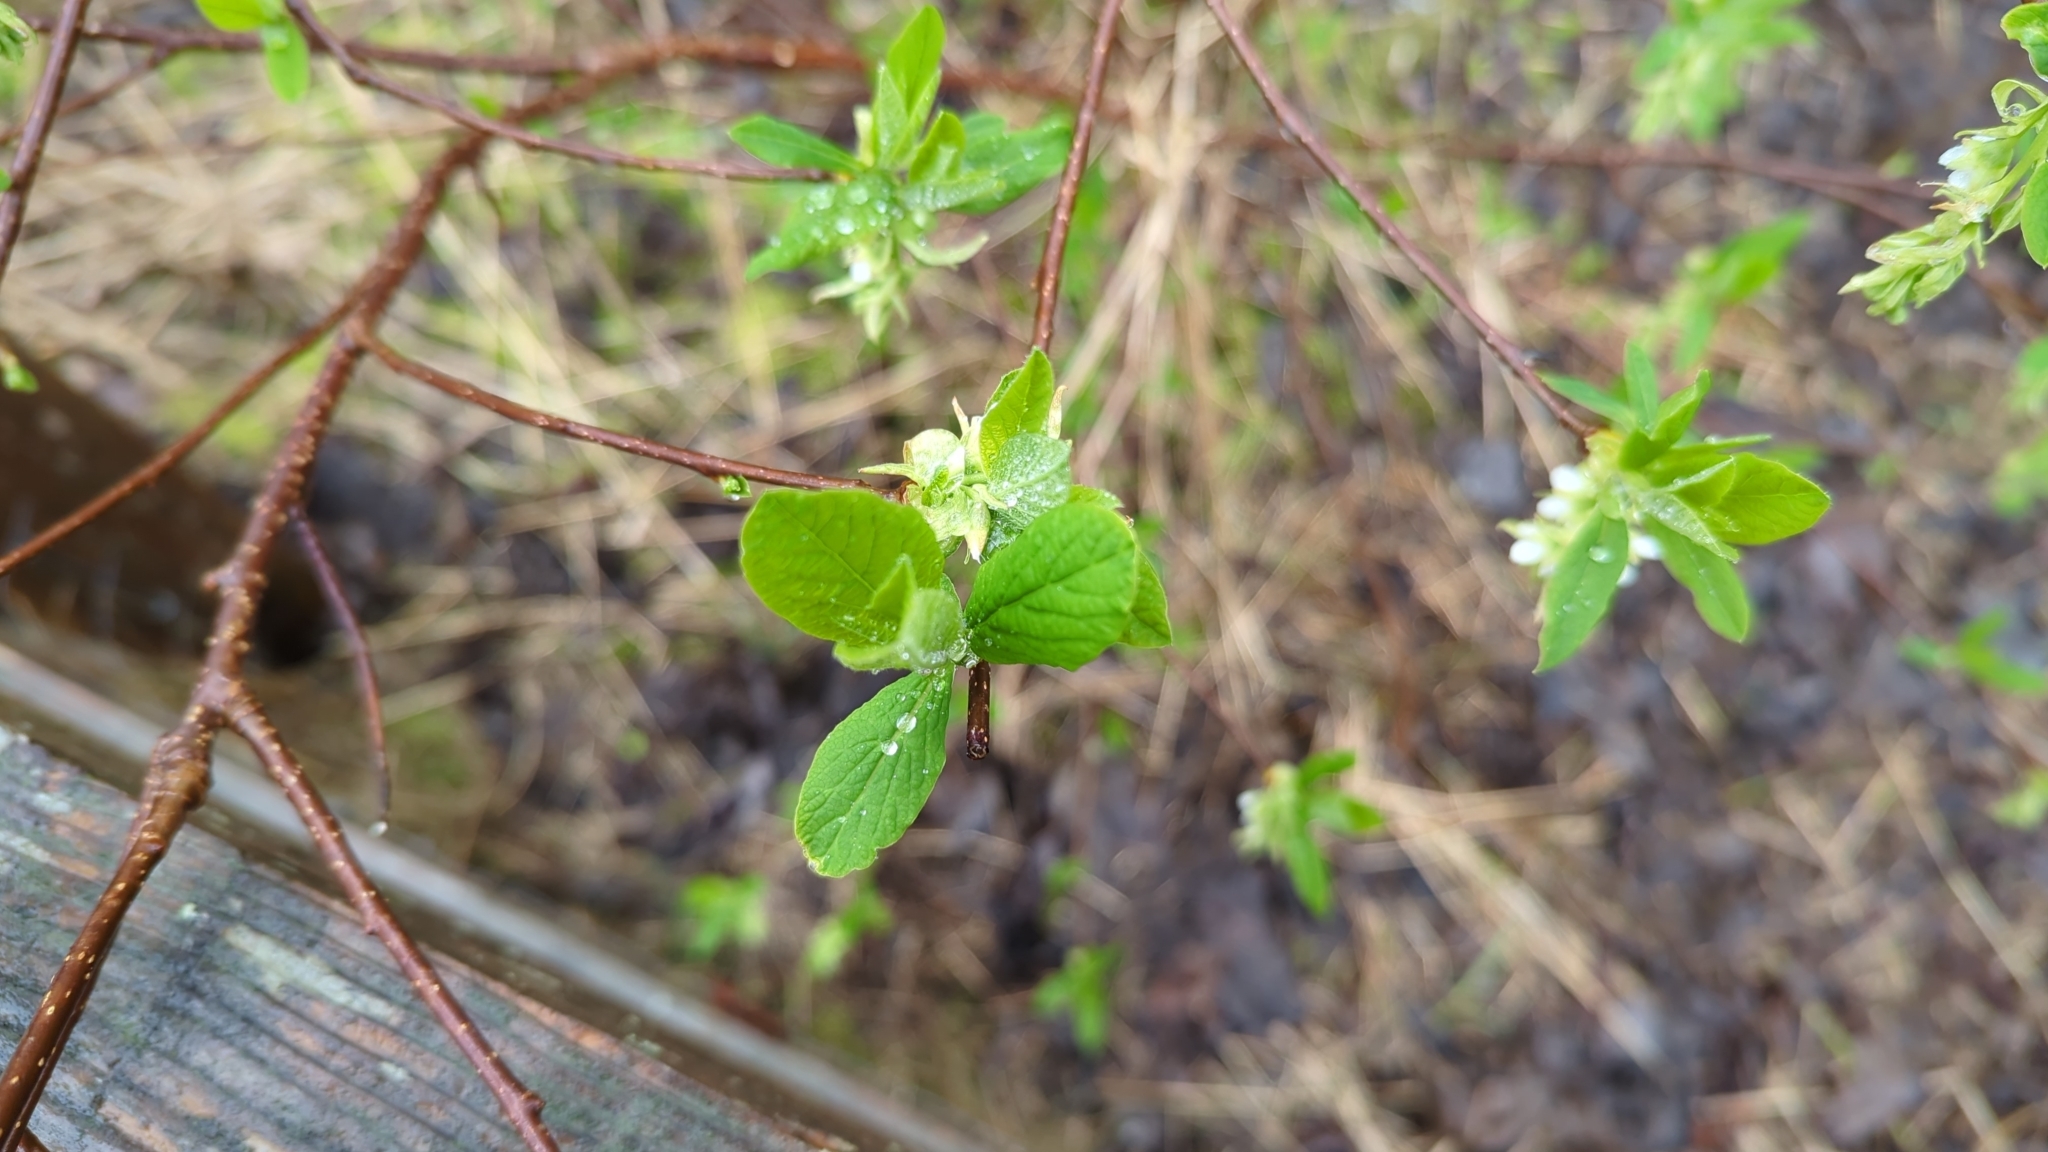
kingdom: Plantae
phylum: Tracheophyta
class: Magnoliopsida
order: Rosales
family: Rosaceae
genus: Oemleria
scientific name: Oemleria cerasiformis
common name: Osoberry
